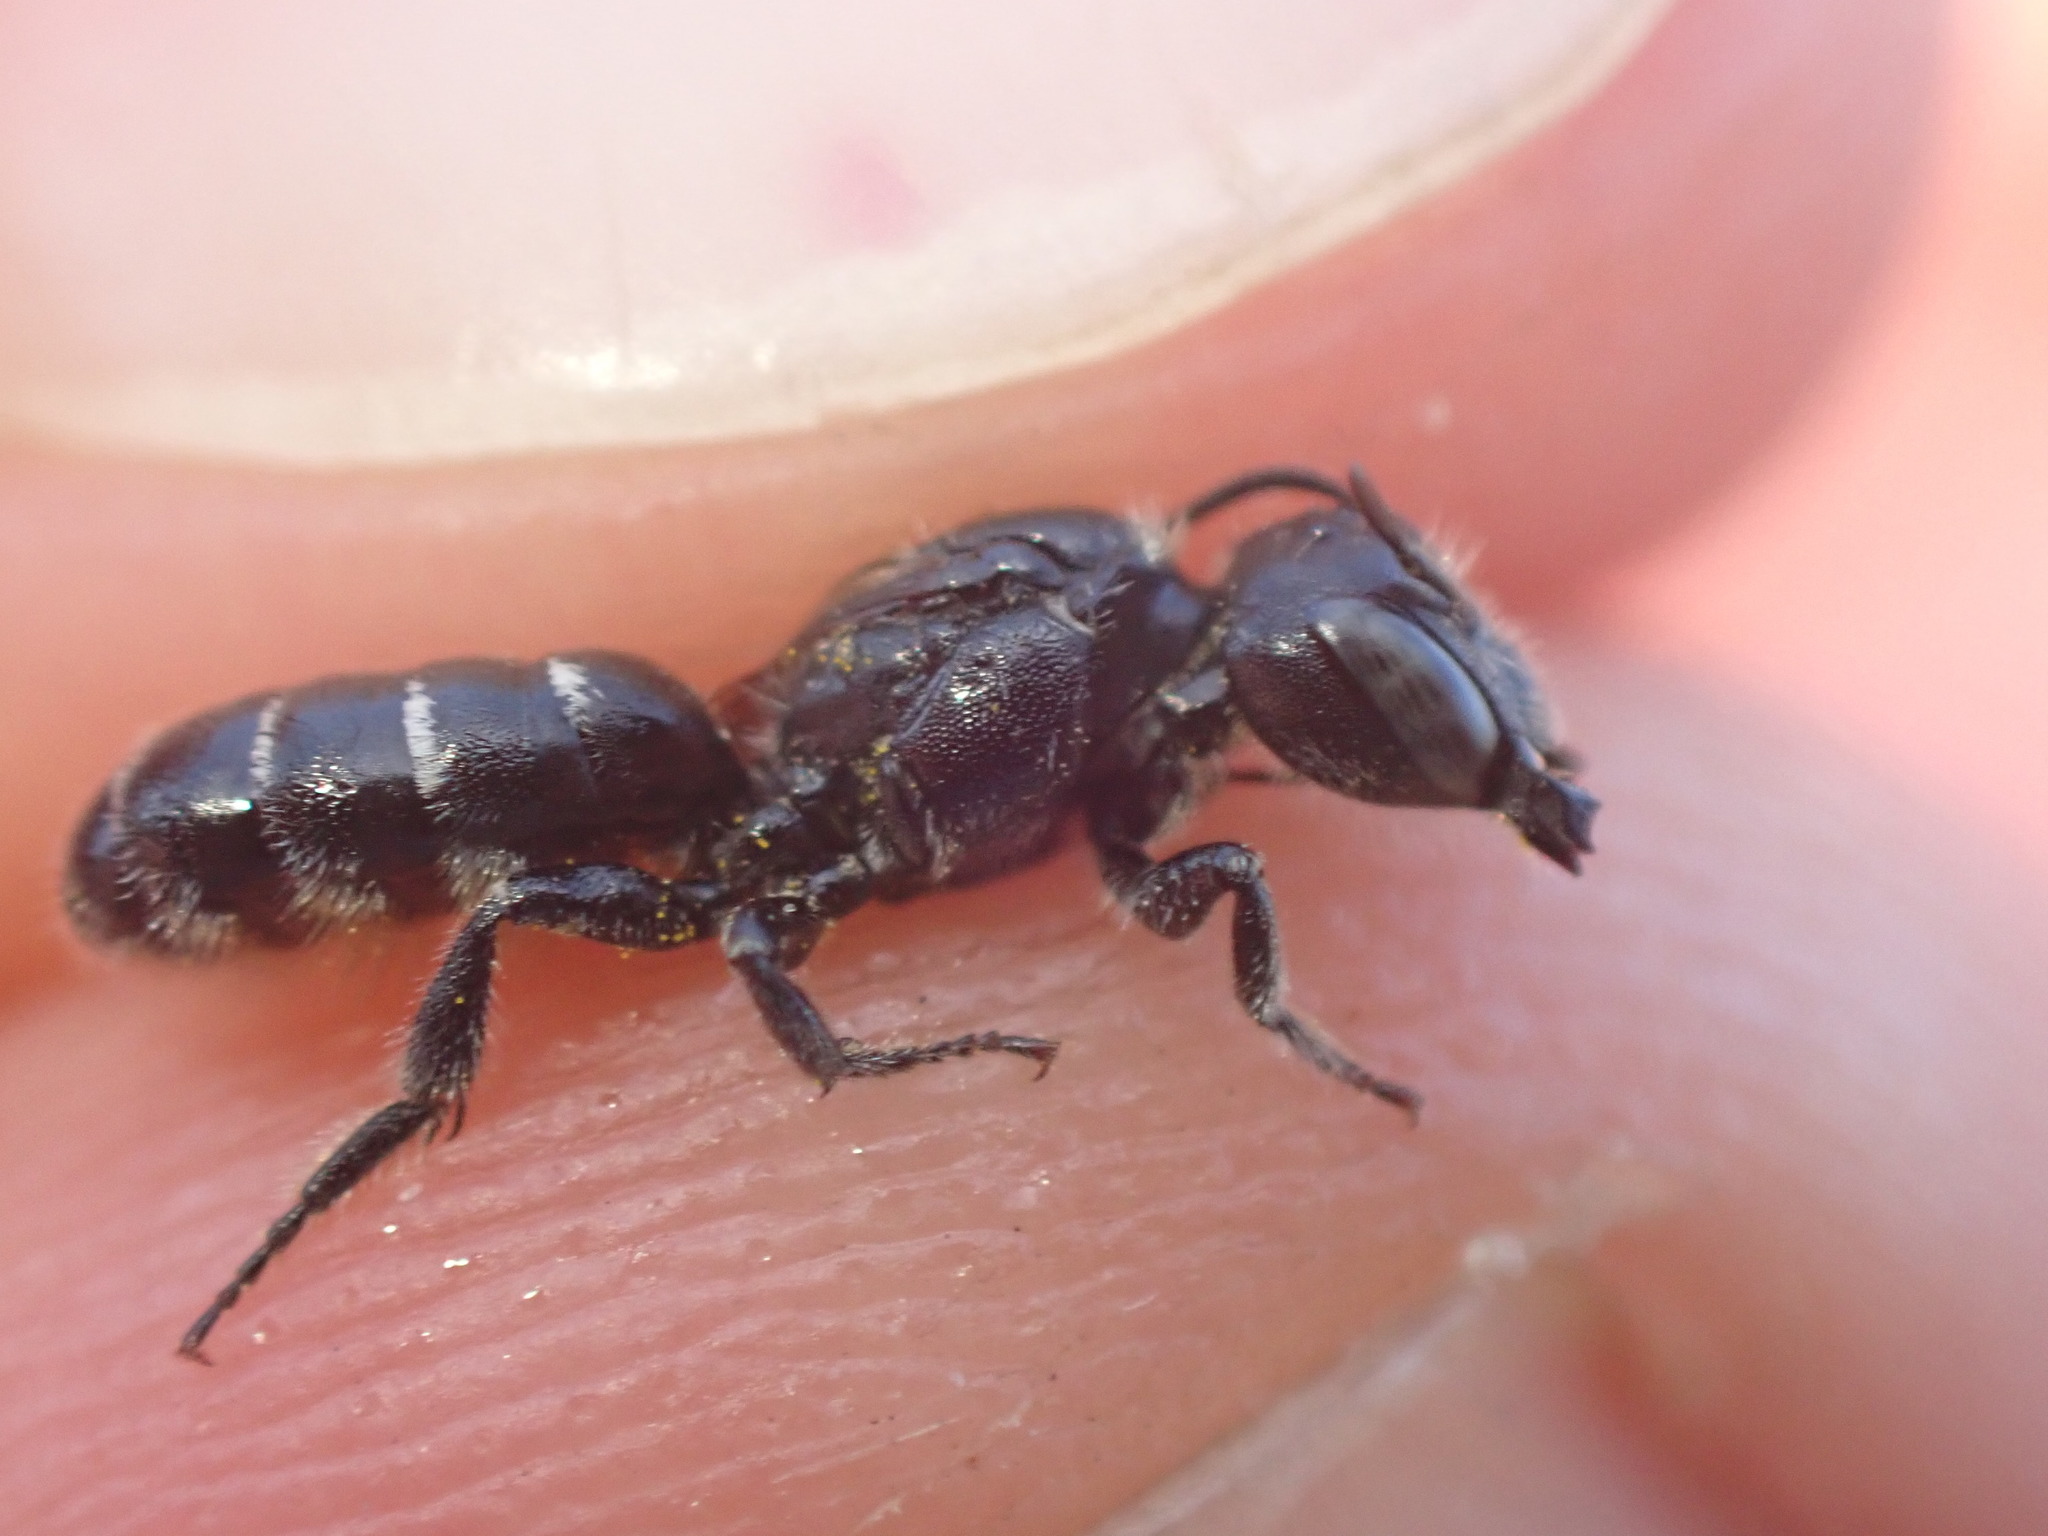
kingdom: Animalia
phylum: Arthropoda
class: Insecta
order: Hymenoptera
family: Megachilidae
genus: Hoplitis
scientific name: Hoplitis leucomelana
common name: Kirby's mason bee
